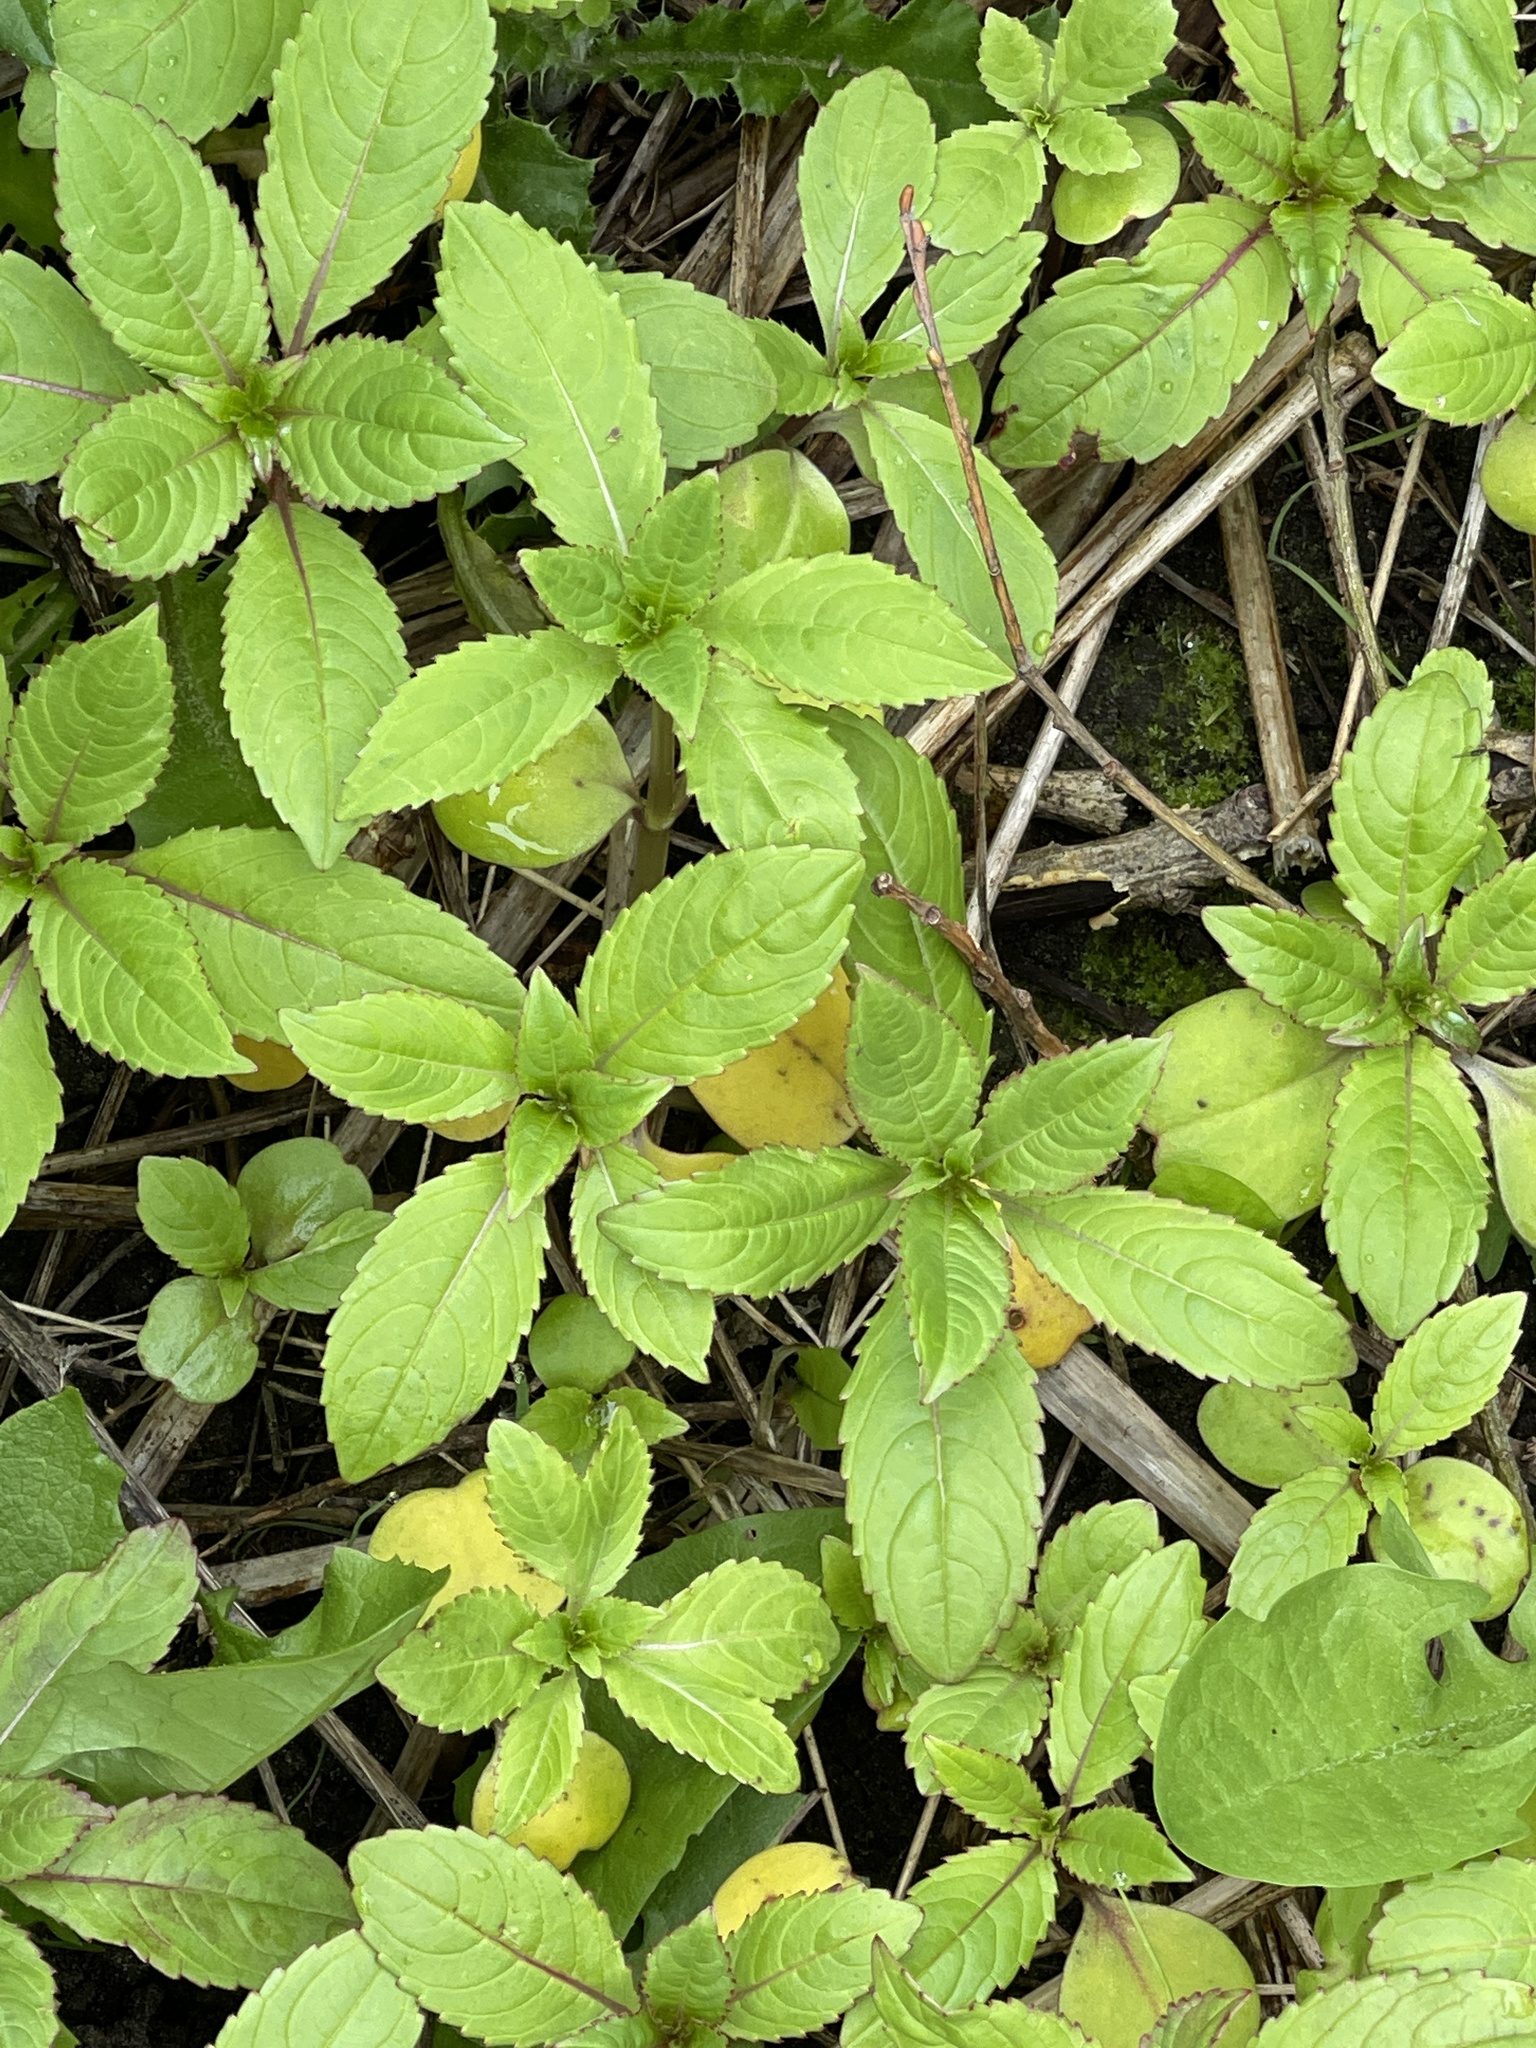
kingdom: Plantae
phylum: Tracheophyta
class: Magnoliopsida
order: Ericales
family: Balsaminaceae
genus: Impatiens
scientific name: Impatiens glandulifera
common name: Himalayan balsam
